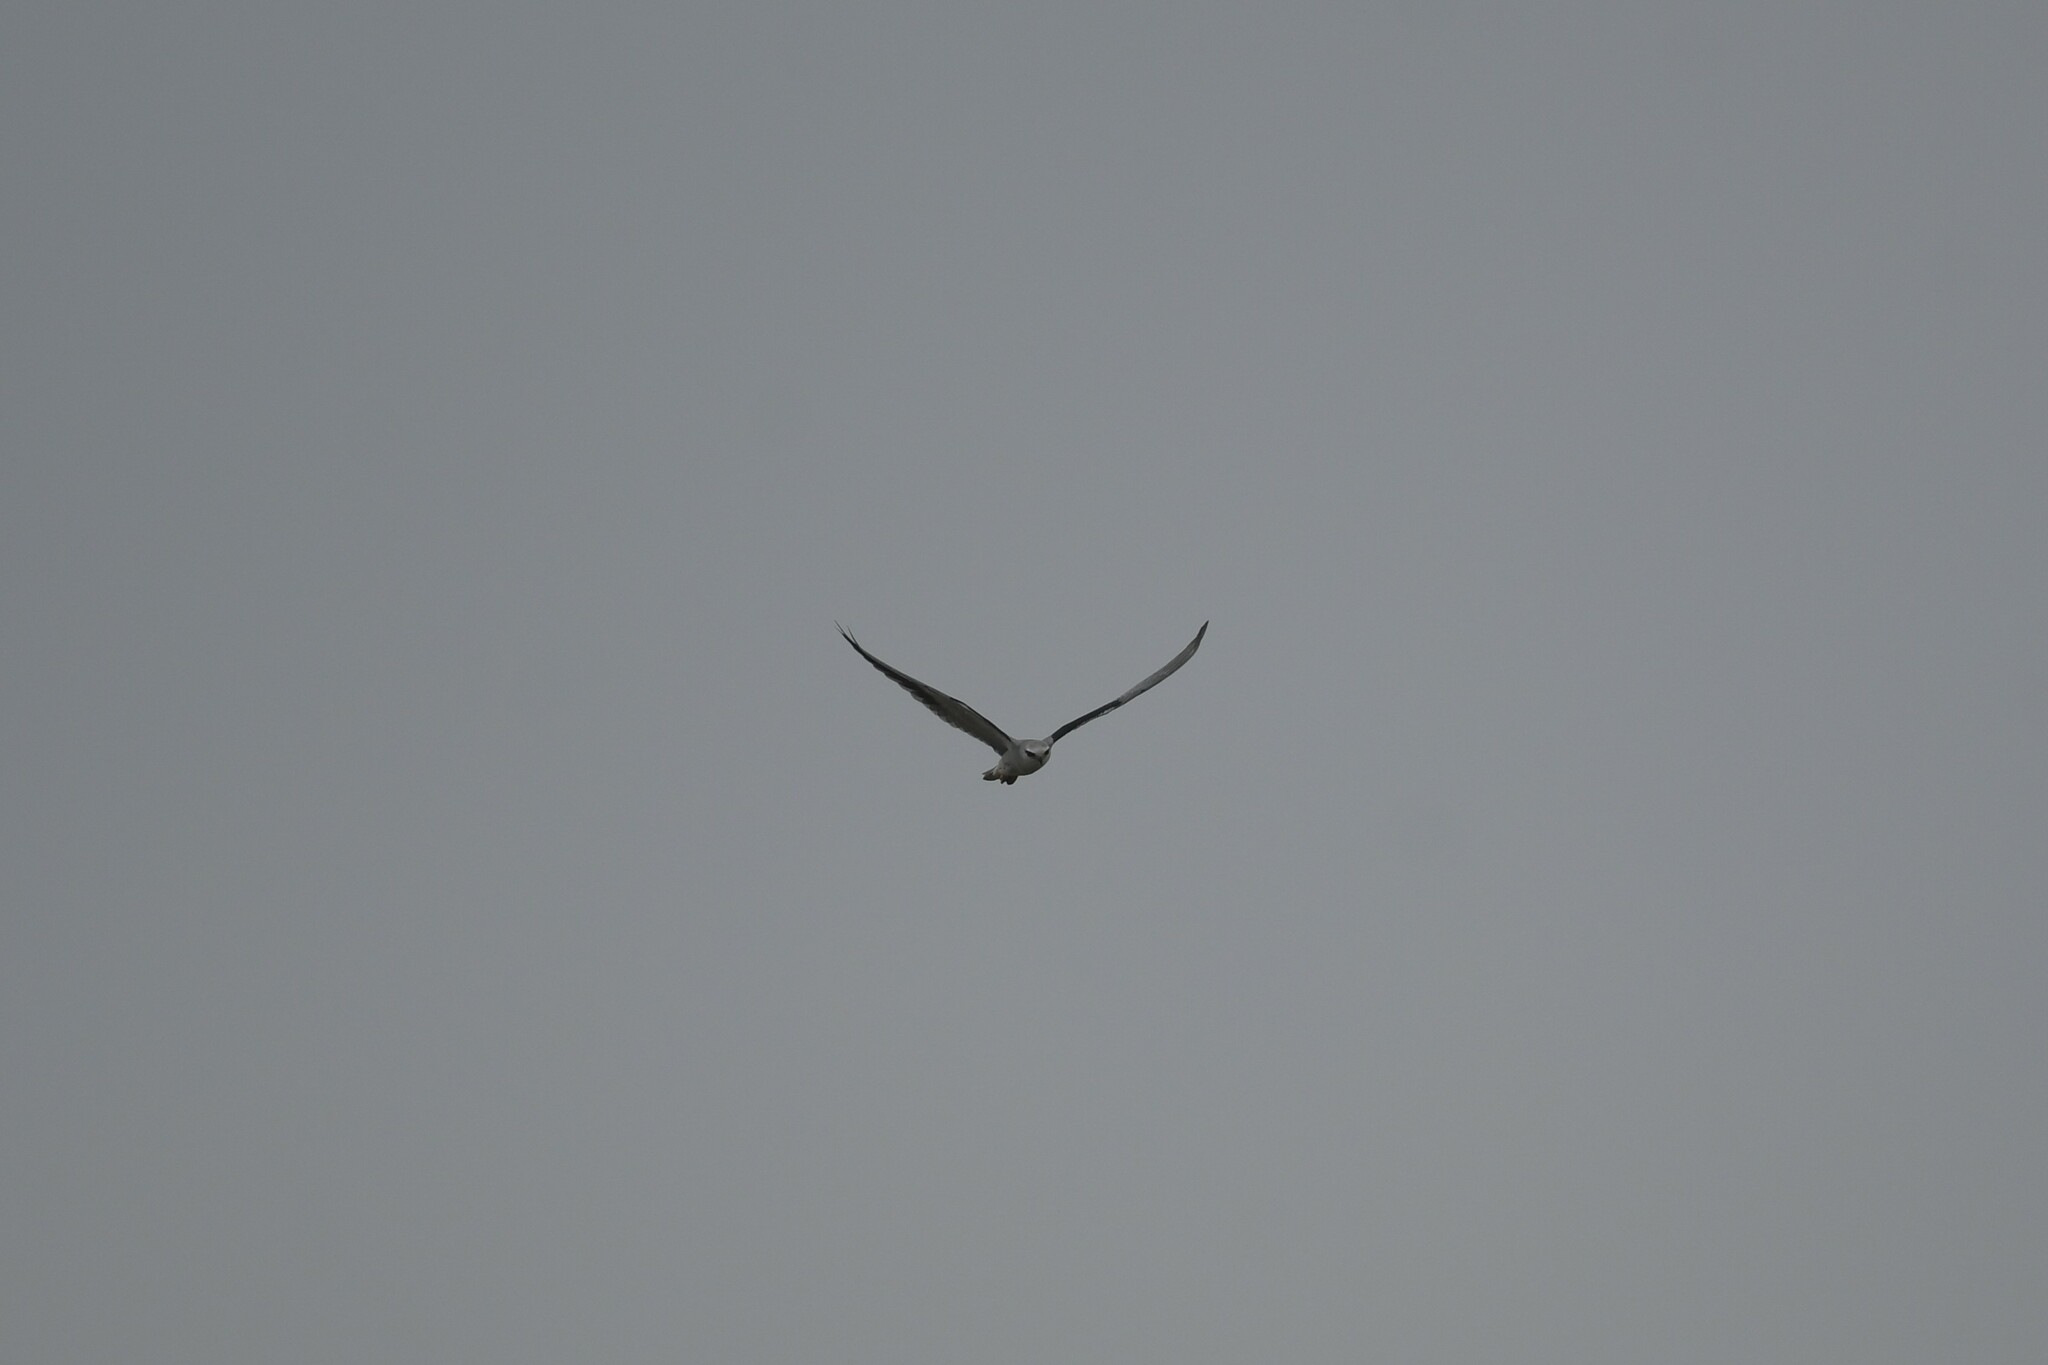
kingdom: Animalia
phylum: Chordata
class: Aves
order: Accipitriformes
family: Accipitridae
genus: Elanus
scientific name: Elanus caeruleus
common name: Black-winged kite
